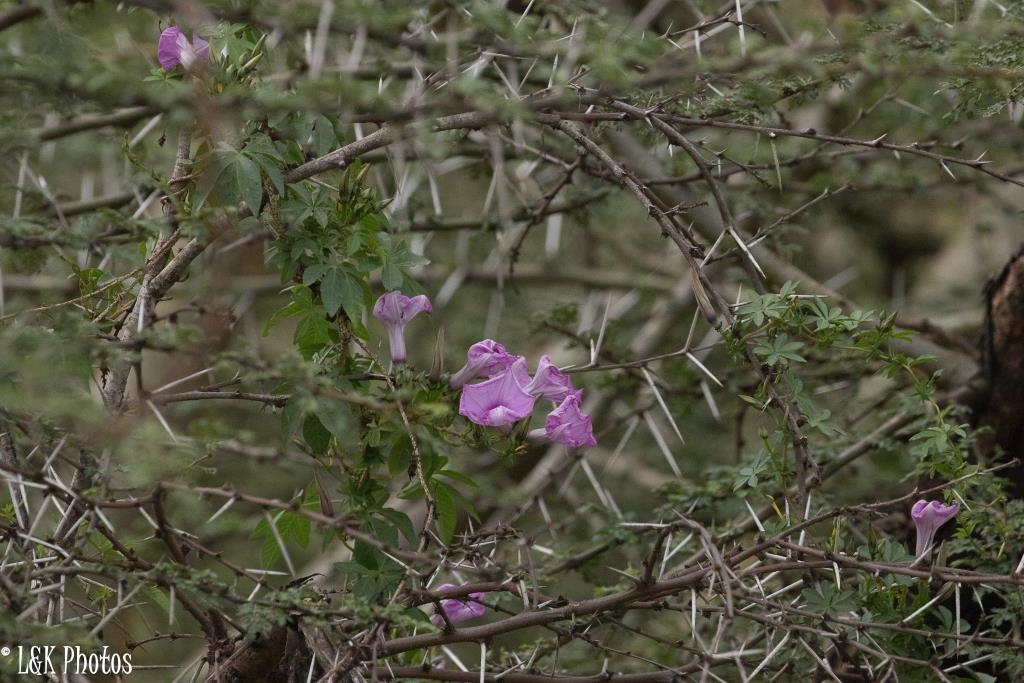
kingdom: Plantae
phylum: Tracheophyta
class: Magnoliopsida
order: Solanales
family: Convolvulaceae
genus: Ipomoea
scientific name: Ipomoea cairica
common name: Mile a minute vine
